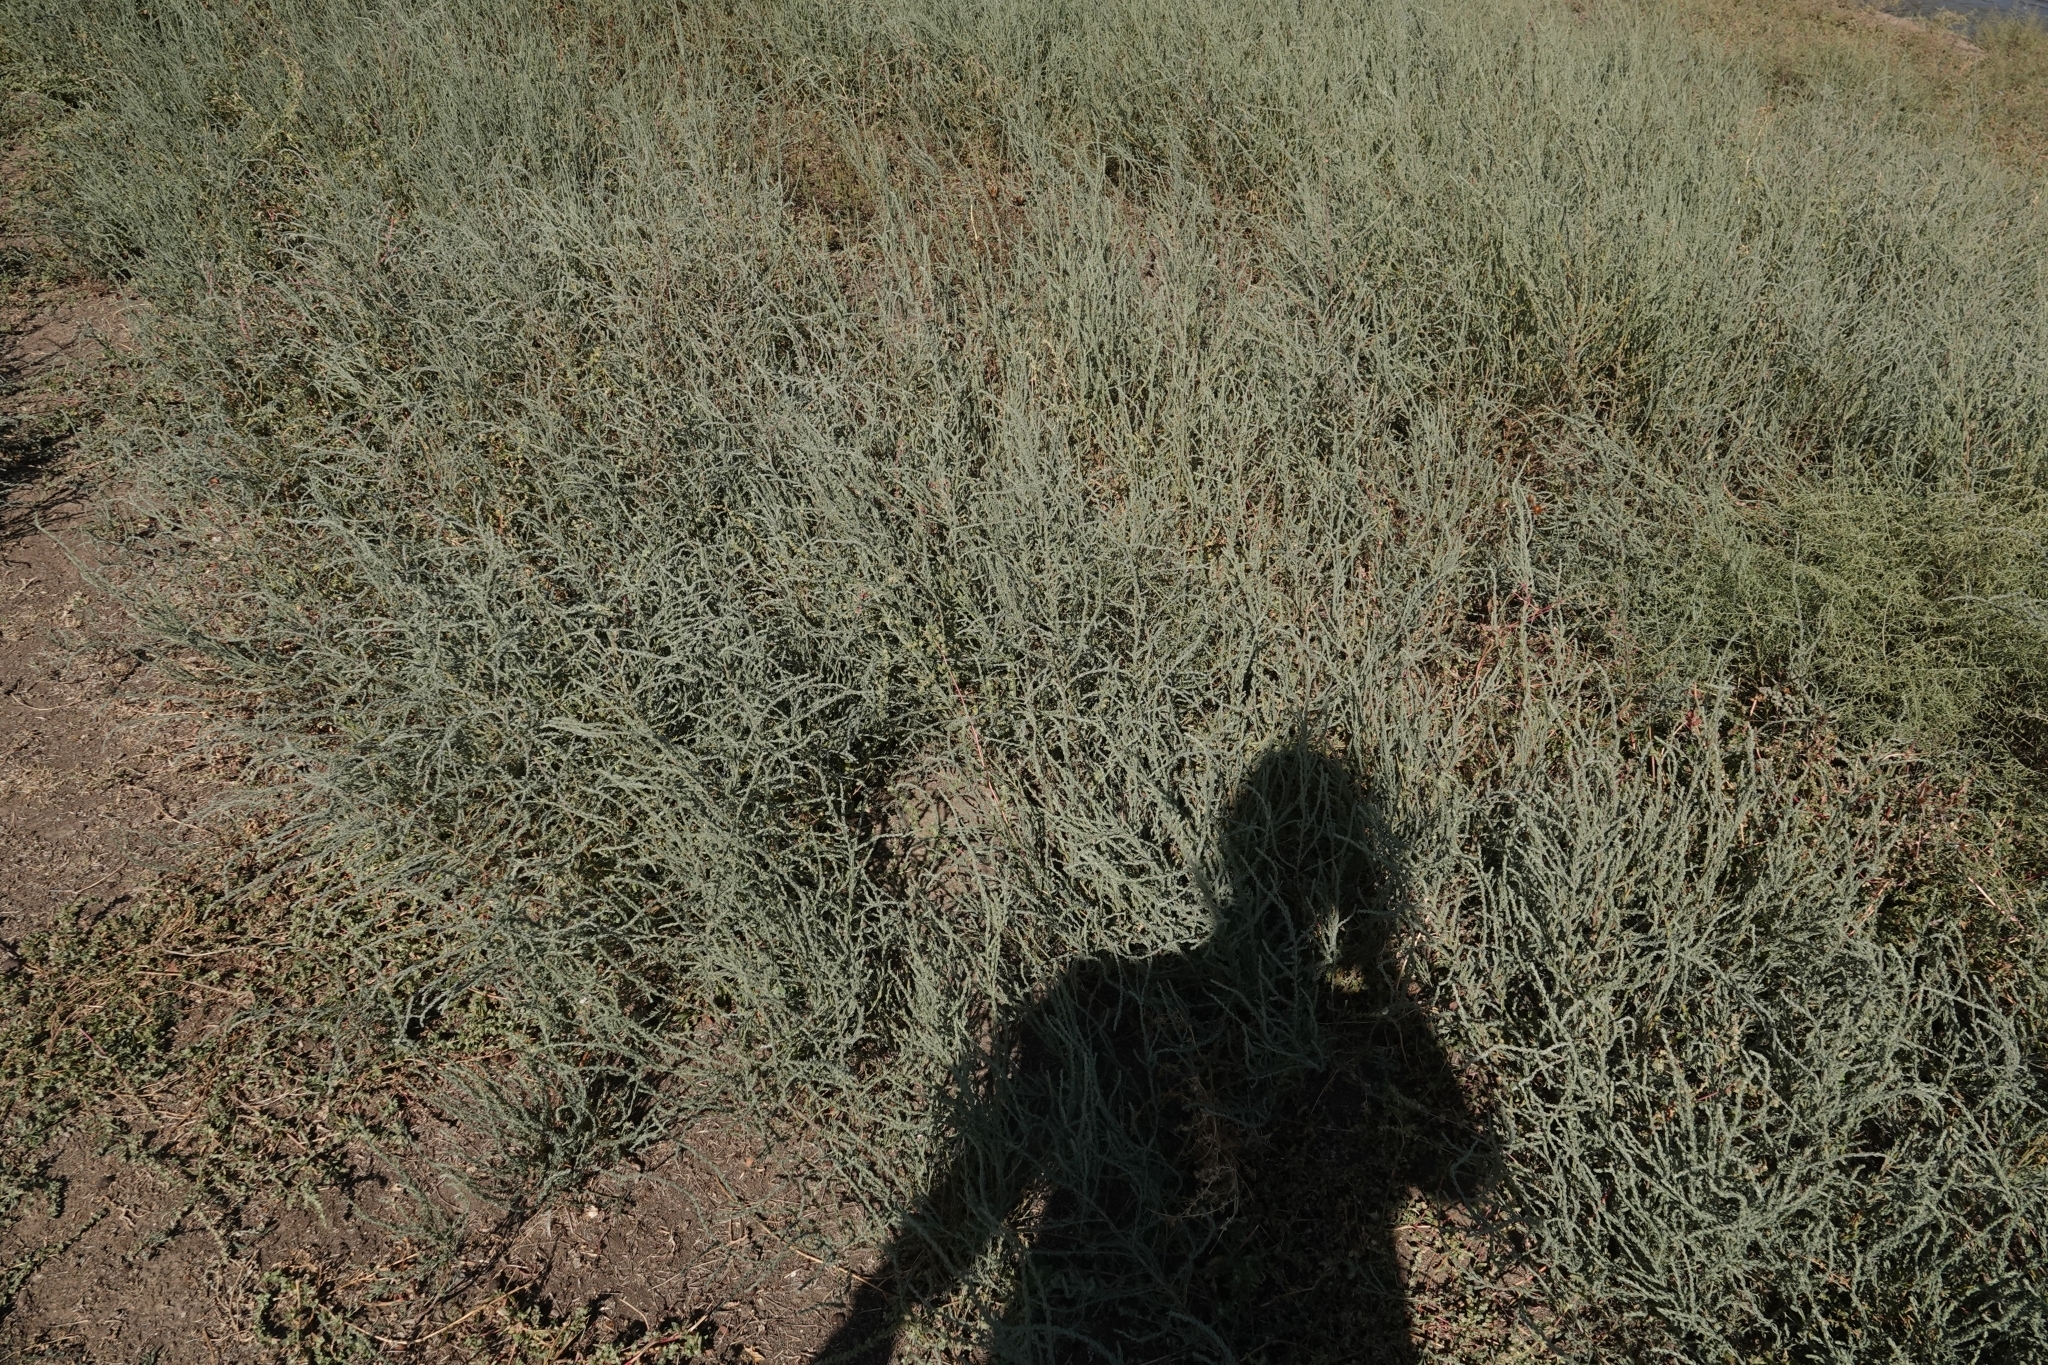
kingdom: Plantae
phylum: Tracheophyta
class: Magnoliopsida
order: Caryophyllales
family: Amaranthaceae
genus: Sedobassia
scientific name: Sedobassia sedoides
